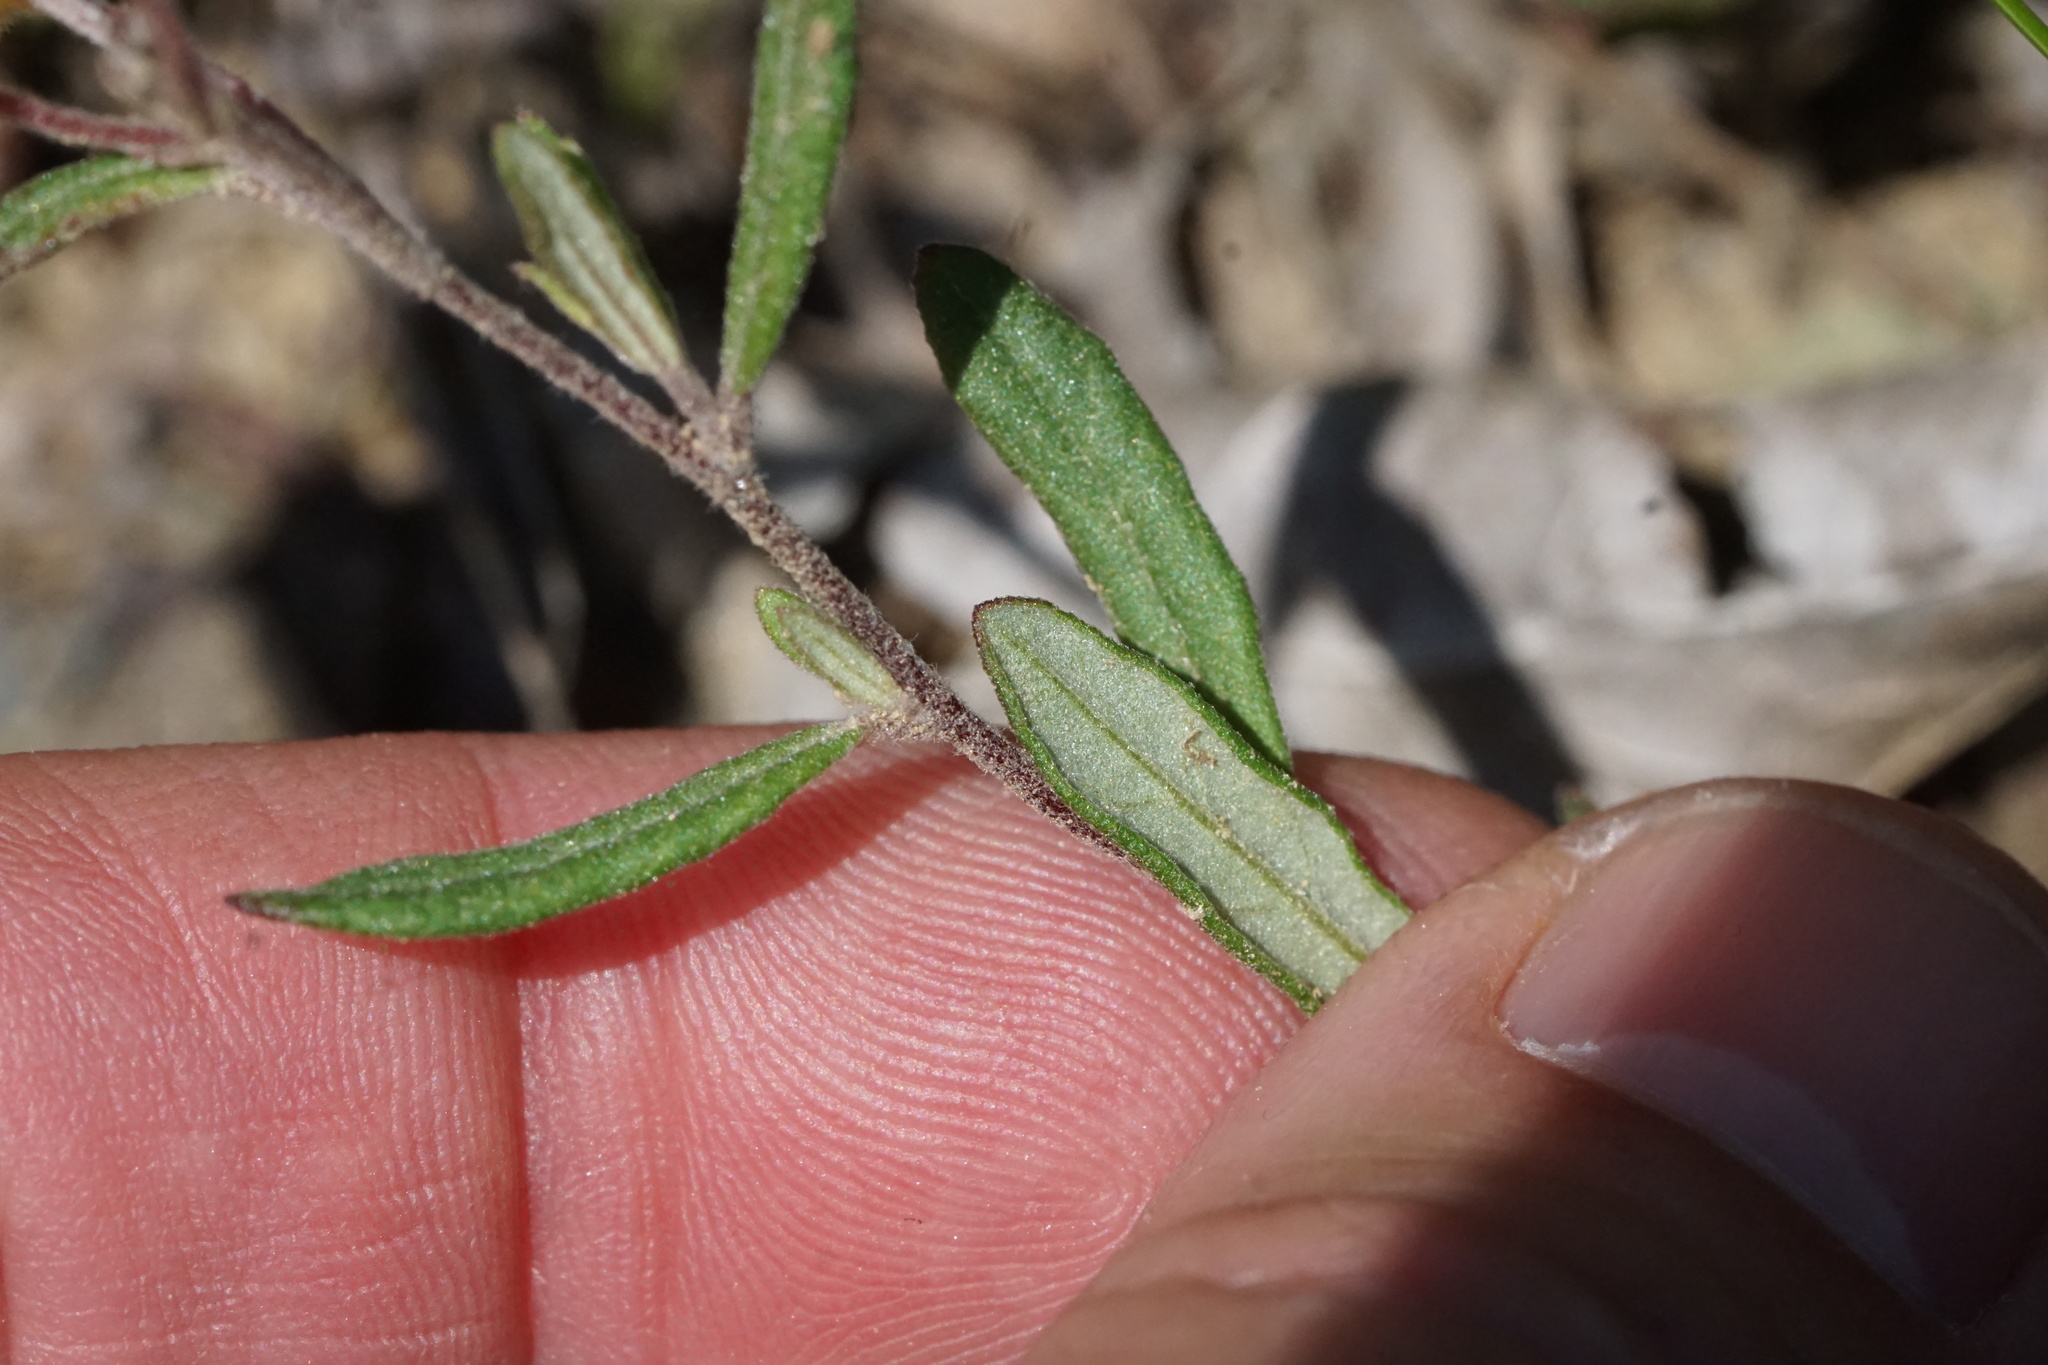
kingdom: Plantae
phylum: Tracheophyta
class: Magnoliopsida
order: Malvales
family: Cistaceae
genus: Crocanthemum
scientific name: Crocanthemum canadense
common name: Canada frostweed
